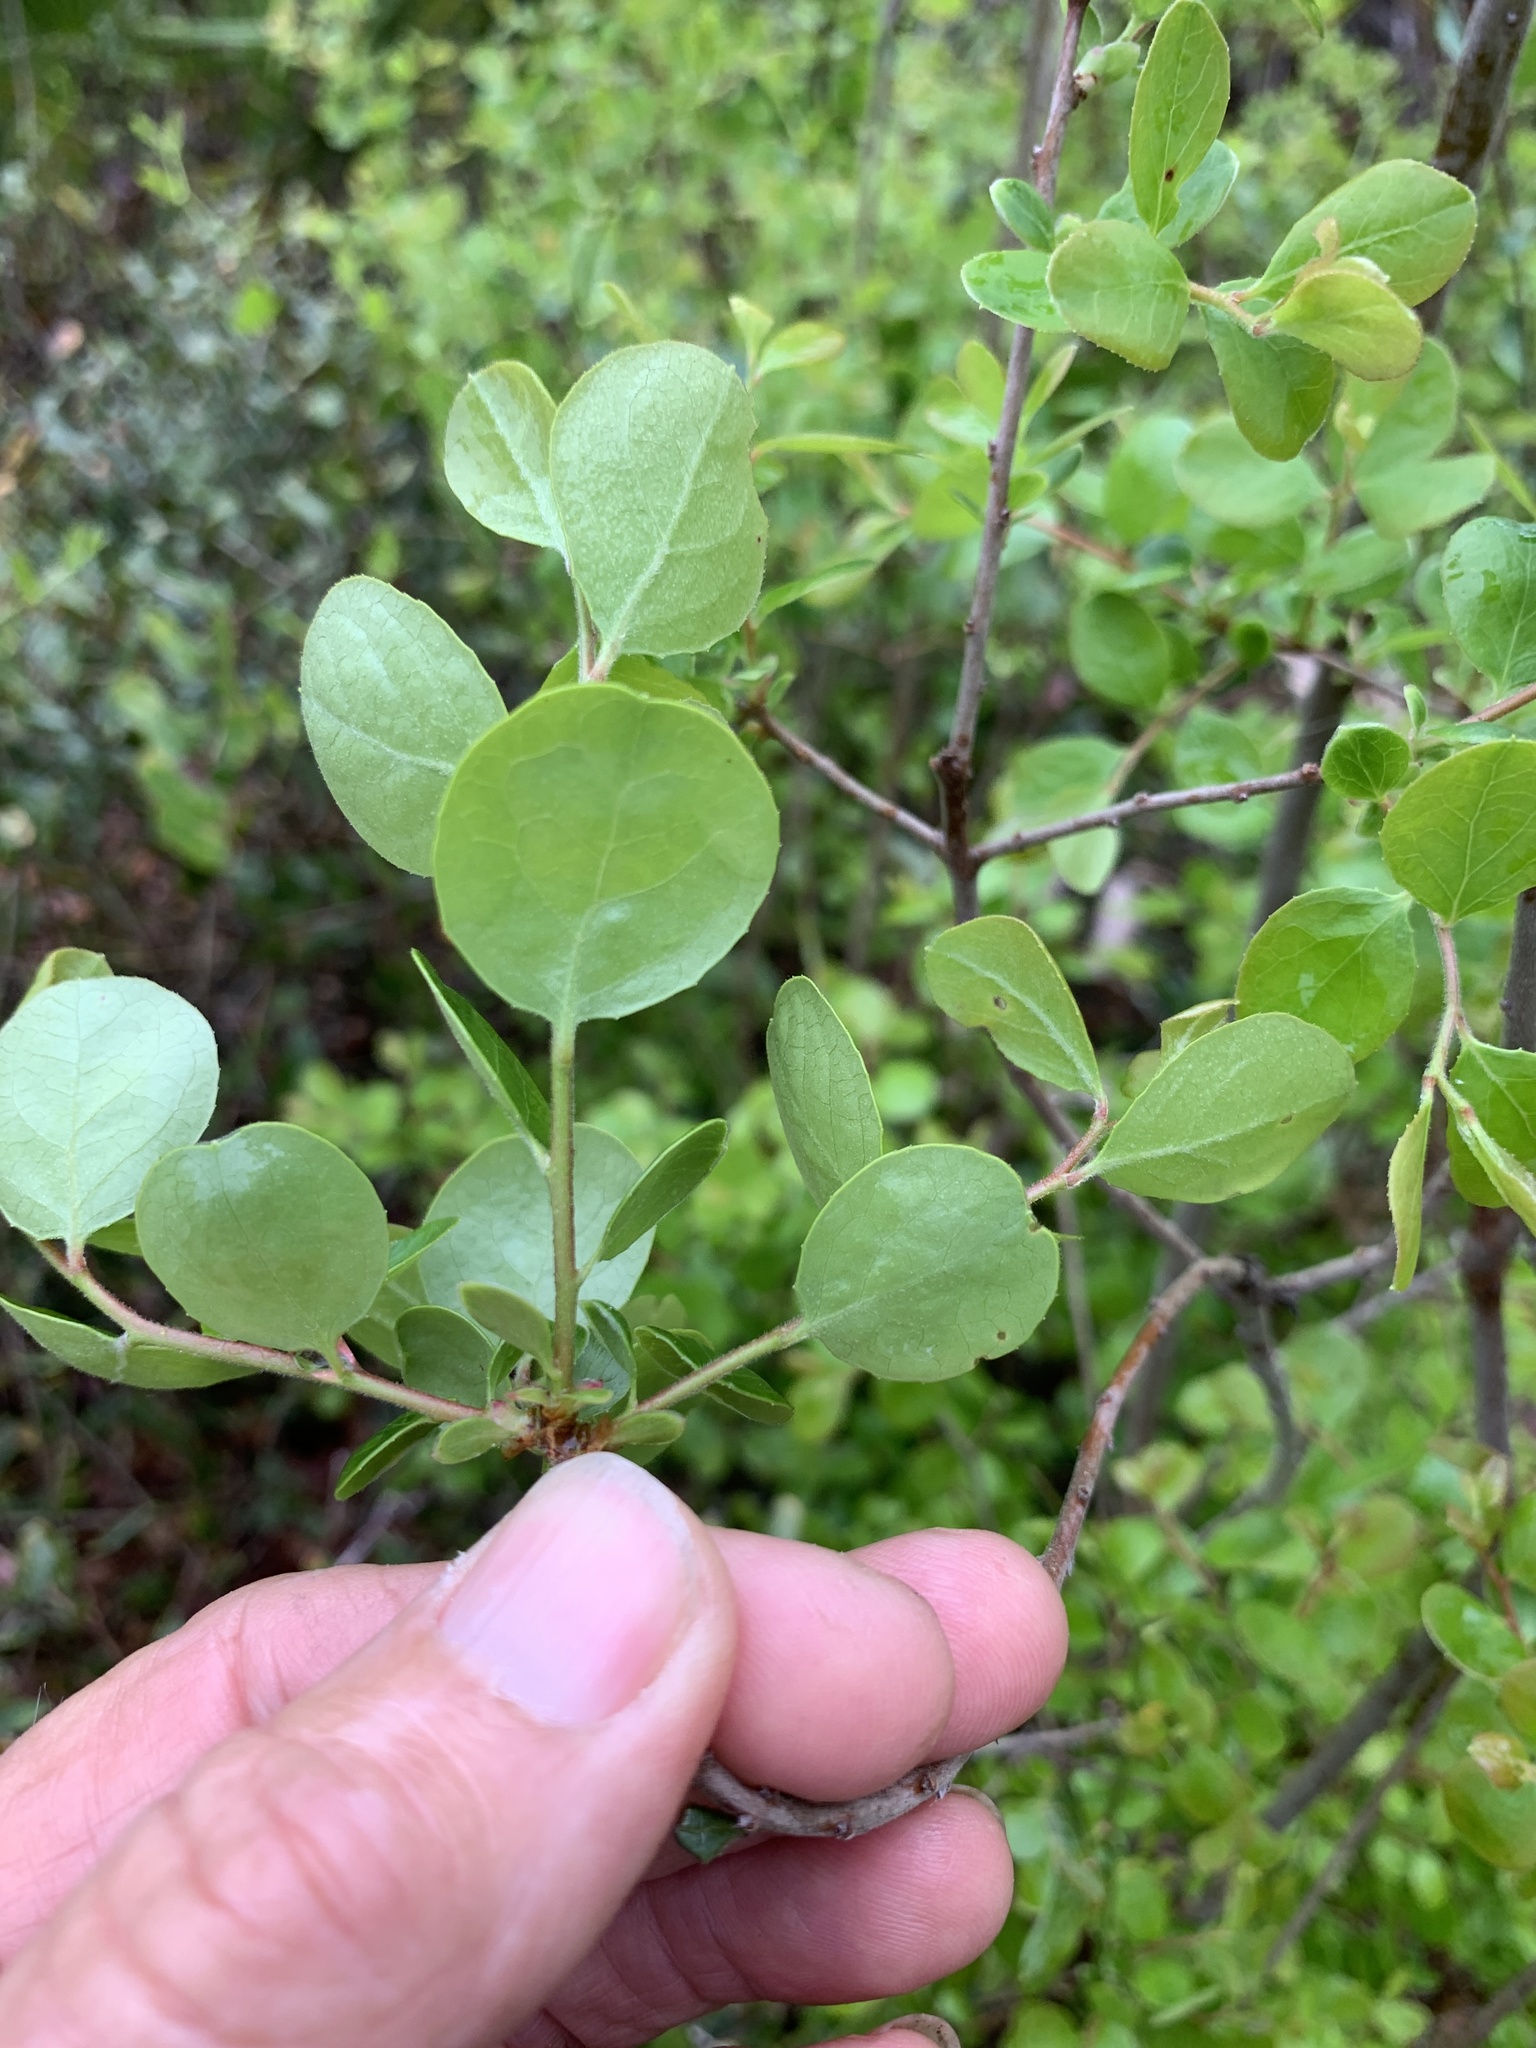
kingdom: Plantae
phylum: Tracheophyta
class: Magnoliopsida
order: Ericales
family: Ericaceae
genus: Vaccinium
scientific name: Vaccinium arboreum
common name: Farkleberry
